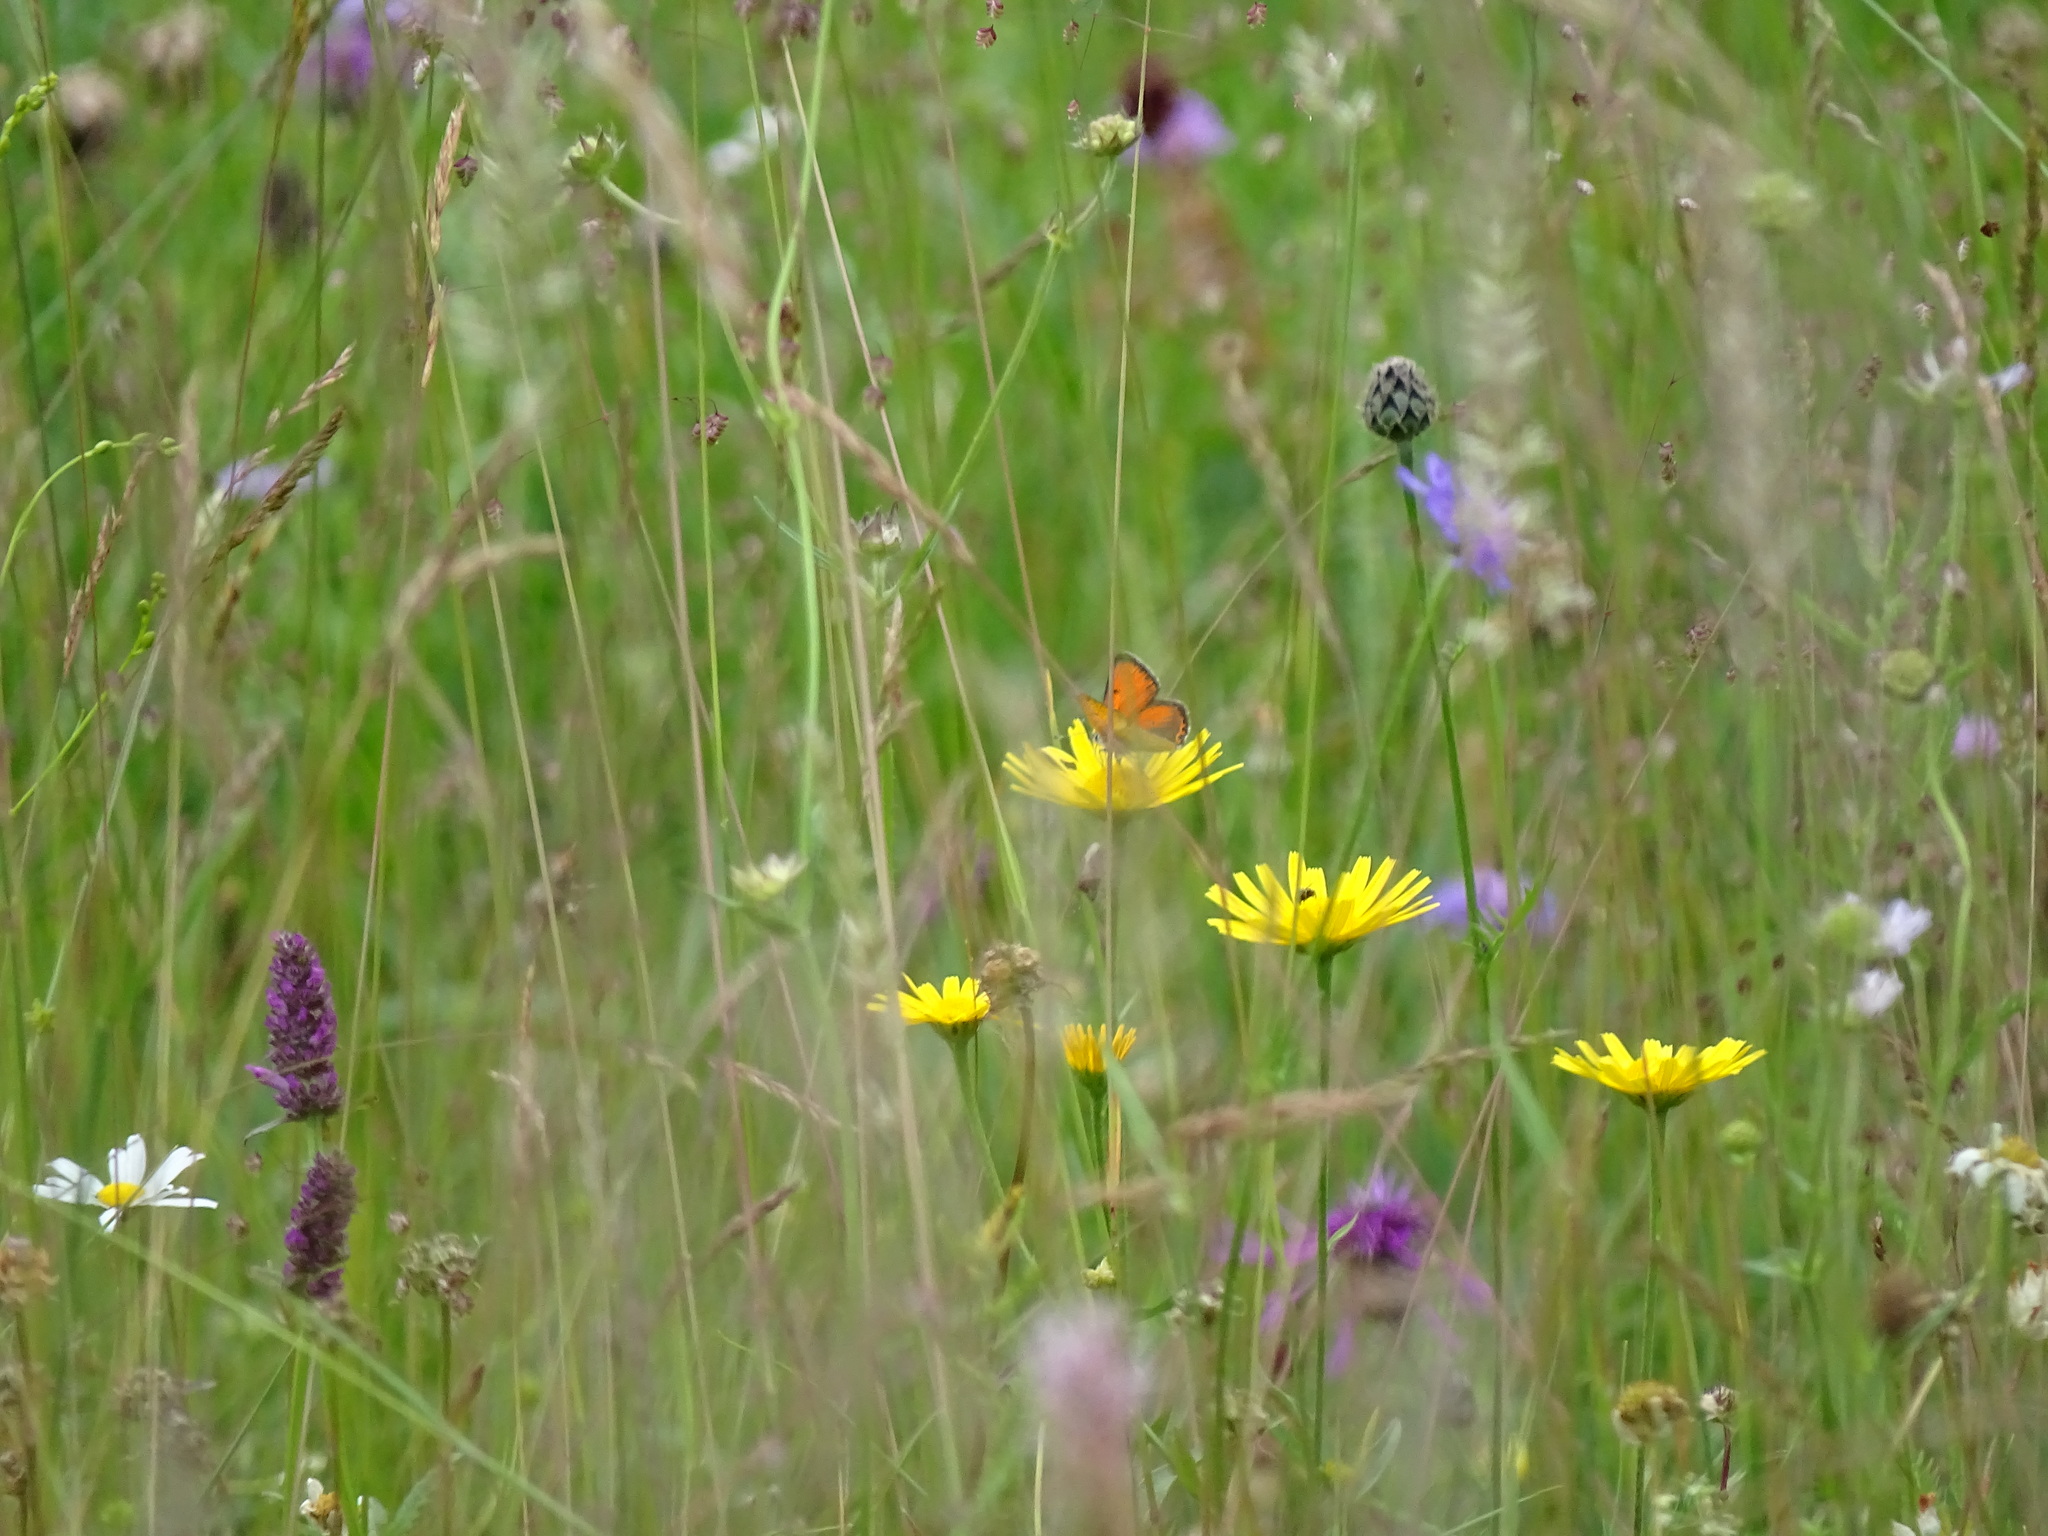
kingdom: Animalia
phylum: Arthropoda
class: Insecta
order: Lepidoptera
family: Lycaenidae
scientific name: Lycaenidae
